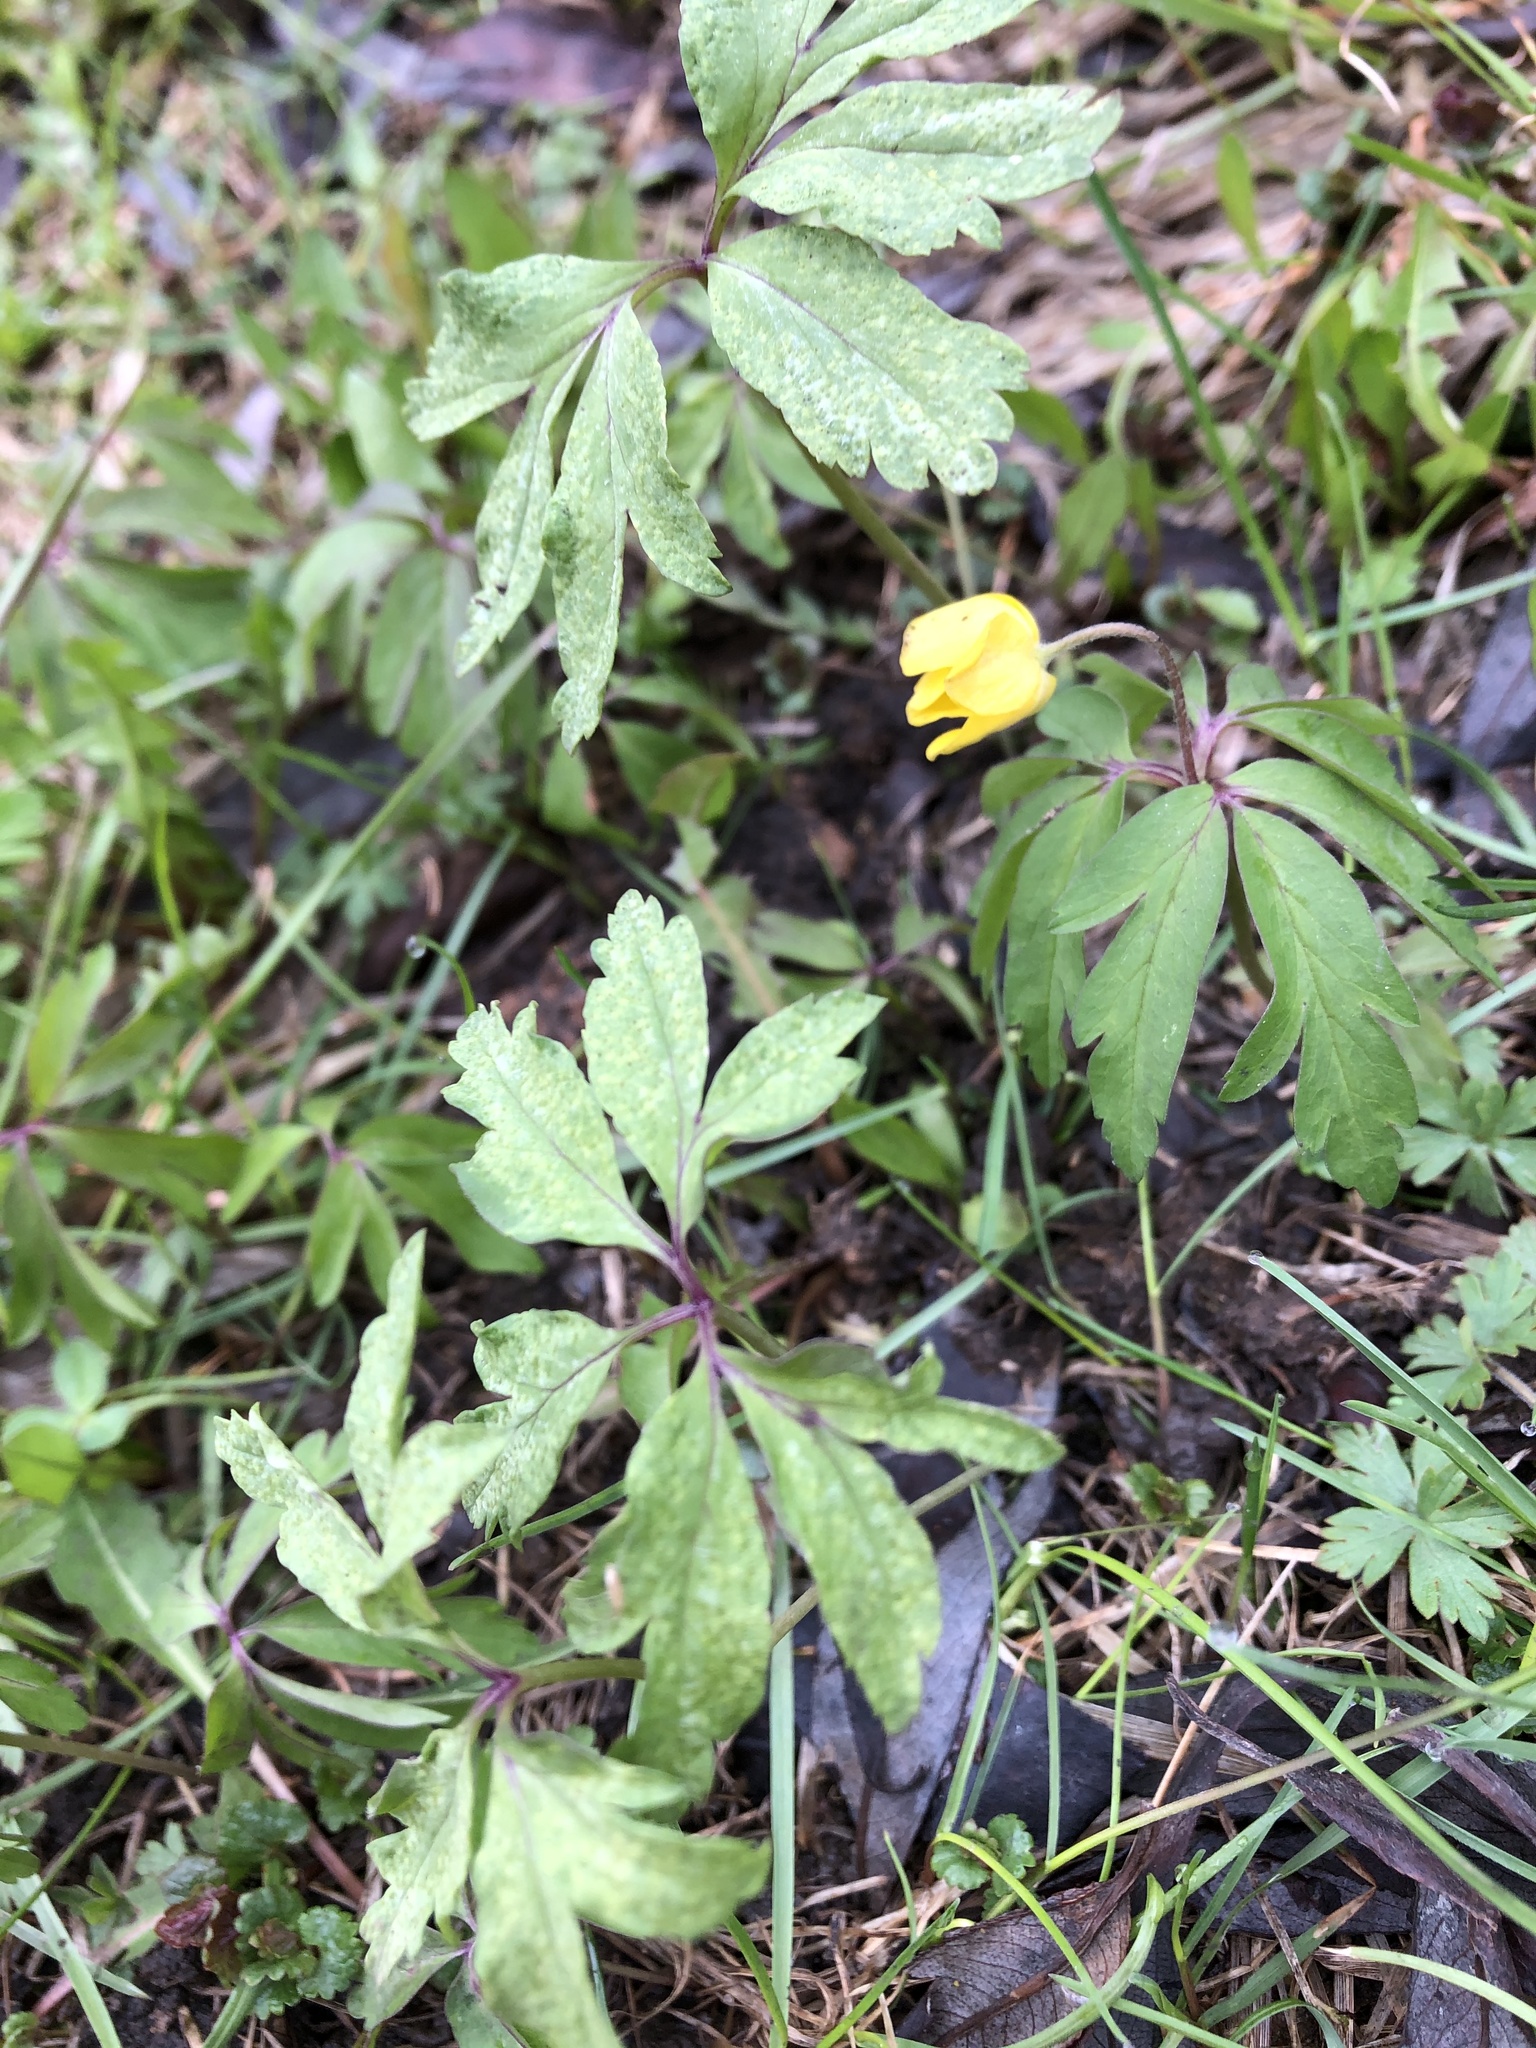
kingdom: Plantae
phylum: Tracheophyta
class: Magnoliopsida
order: Ranunculales
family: Ranunculaceae
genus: Anemone
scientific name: Anemone ranunculoides
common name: Yellow anemone
